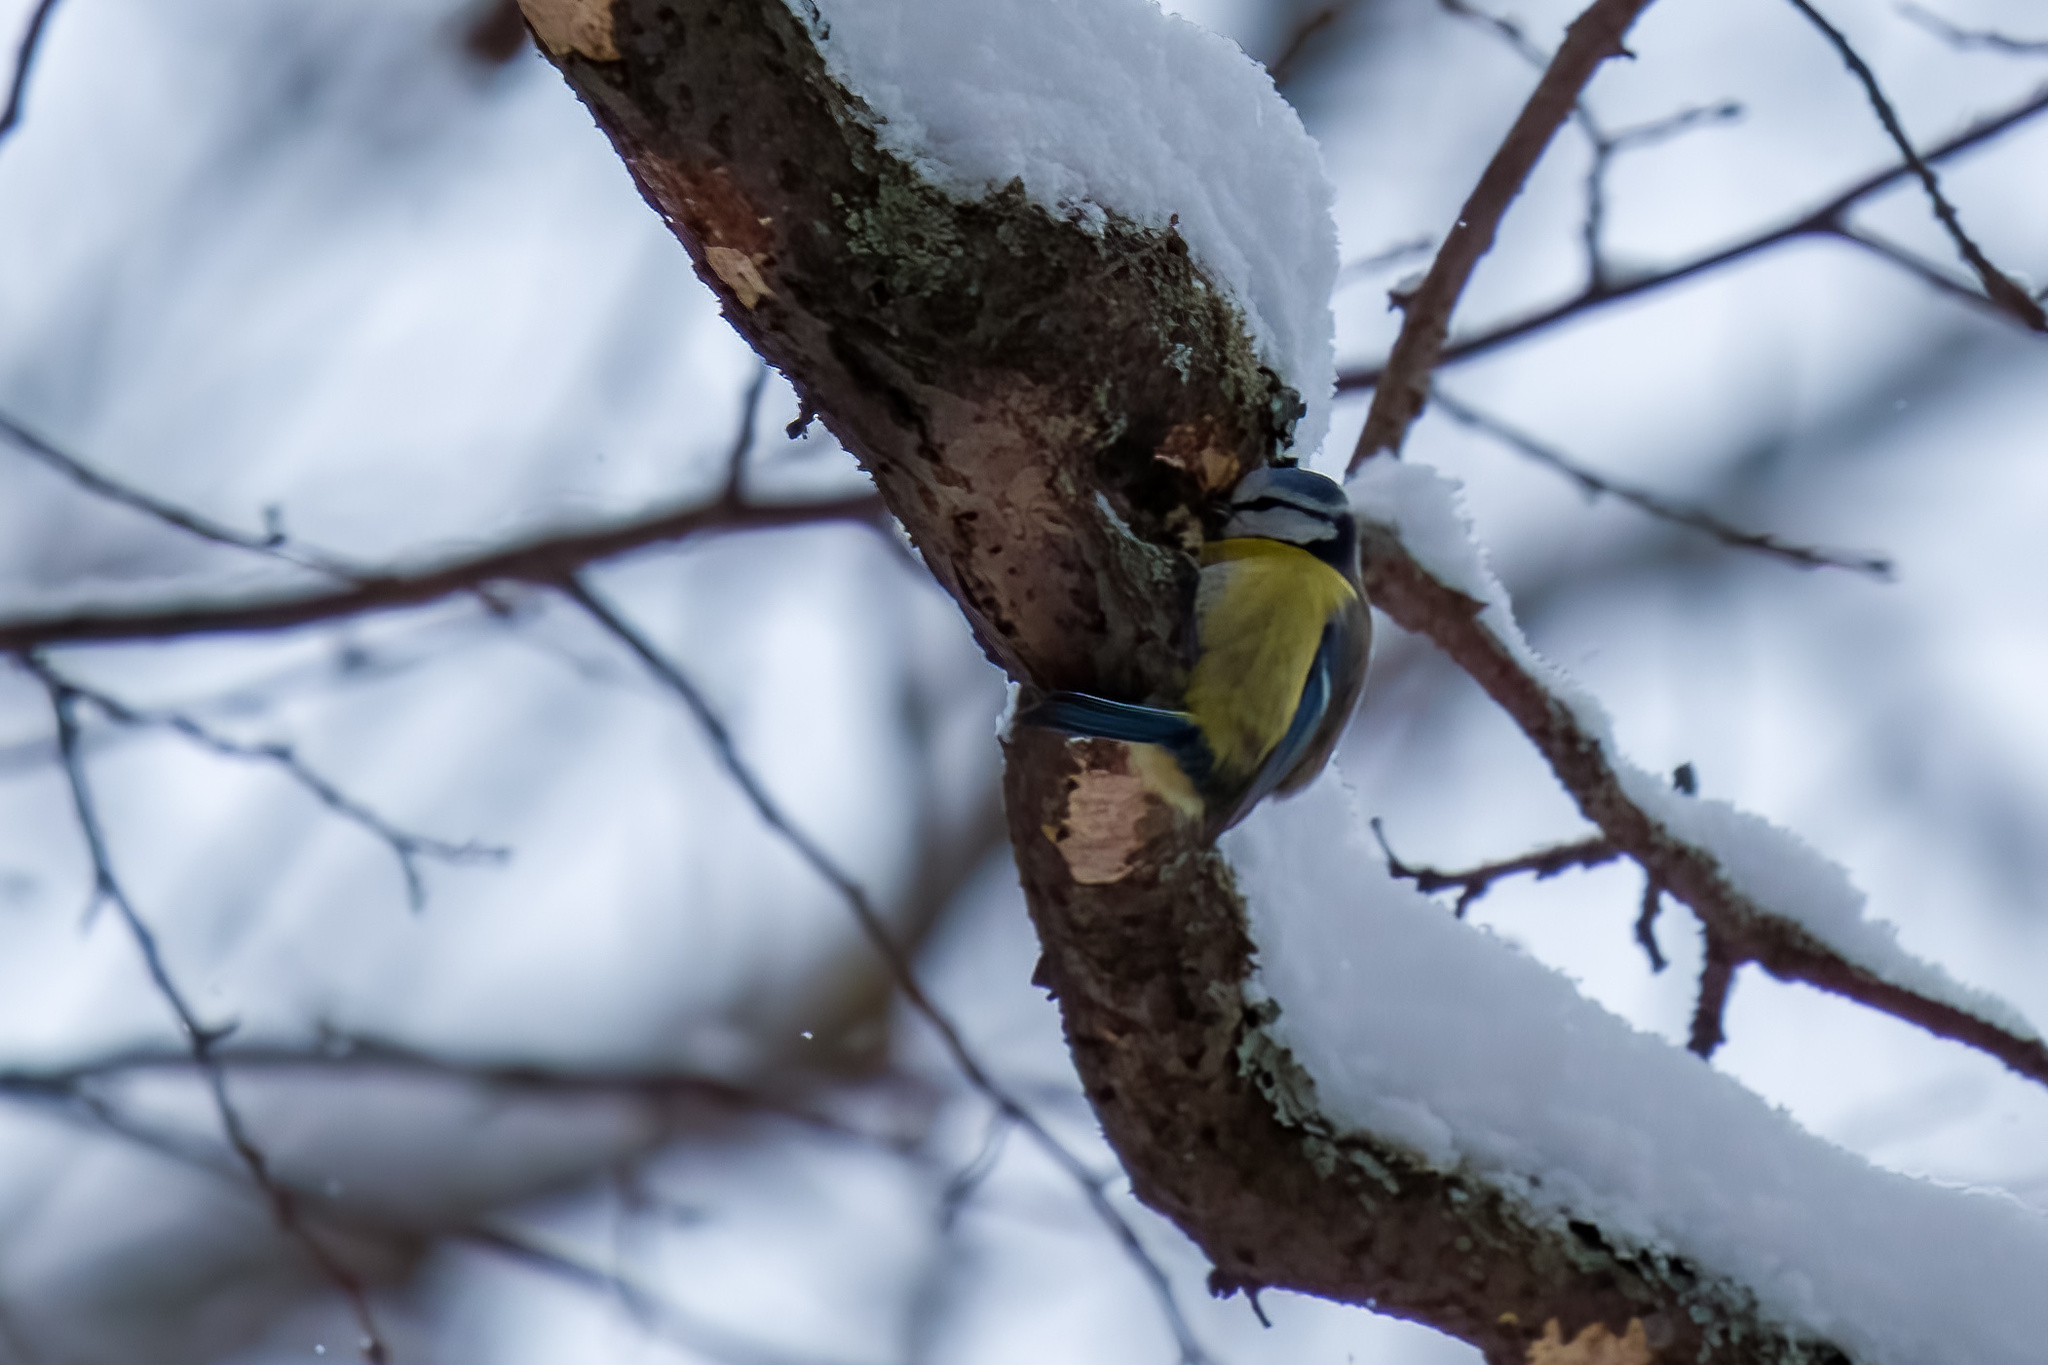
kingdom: Animalia
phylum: Chordata
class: Aves
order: Passeriformes
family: Paridae
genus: Cyanistes
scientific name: Cyanistes caeruleus
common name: Eurasian blue tit
